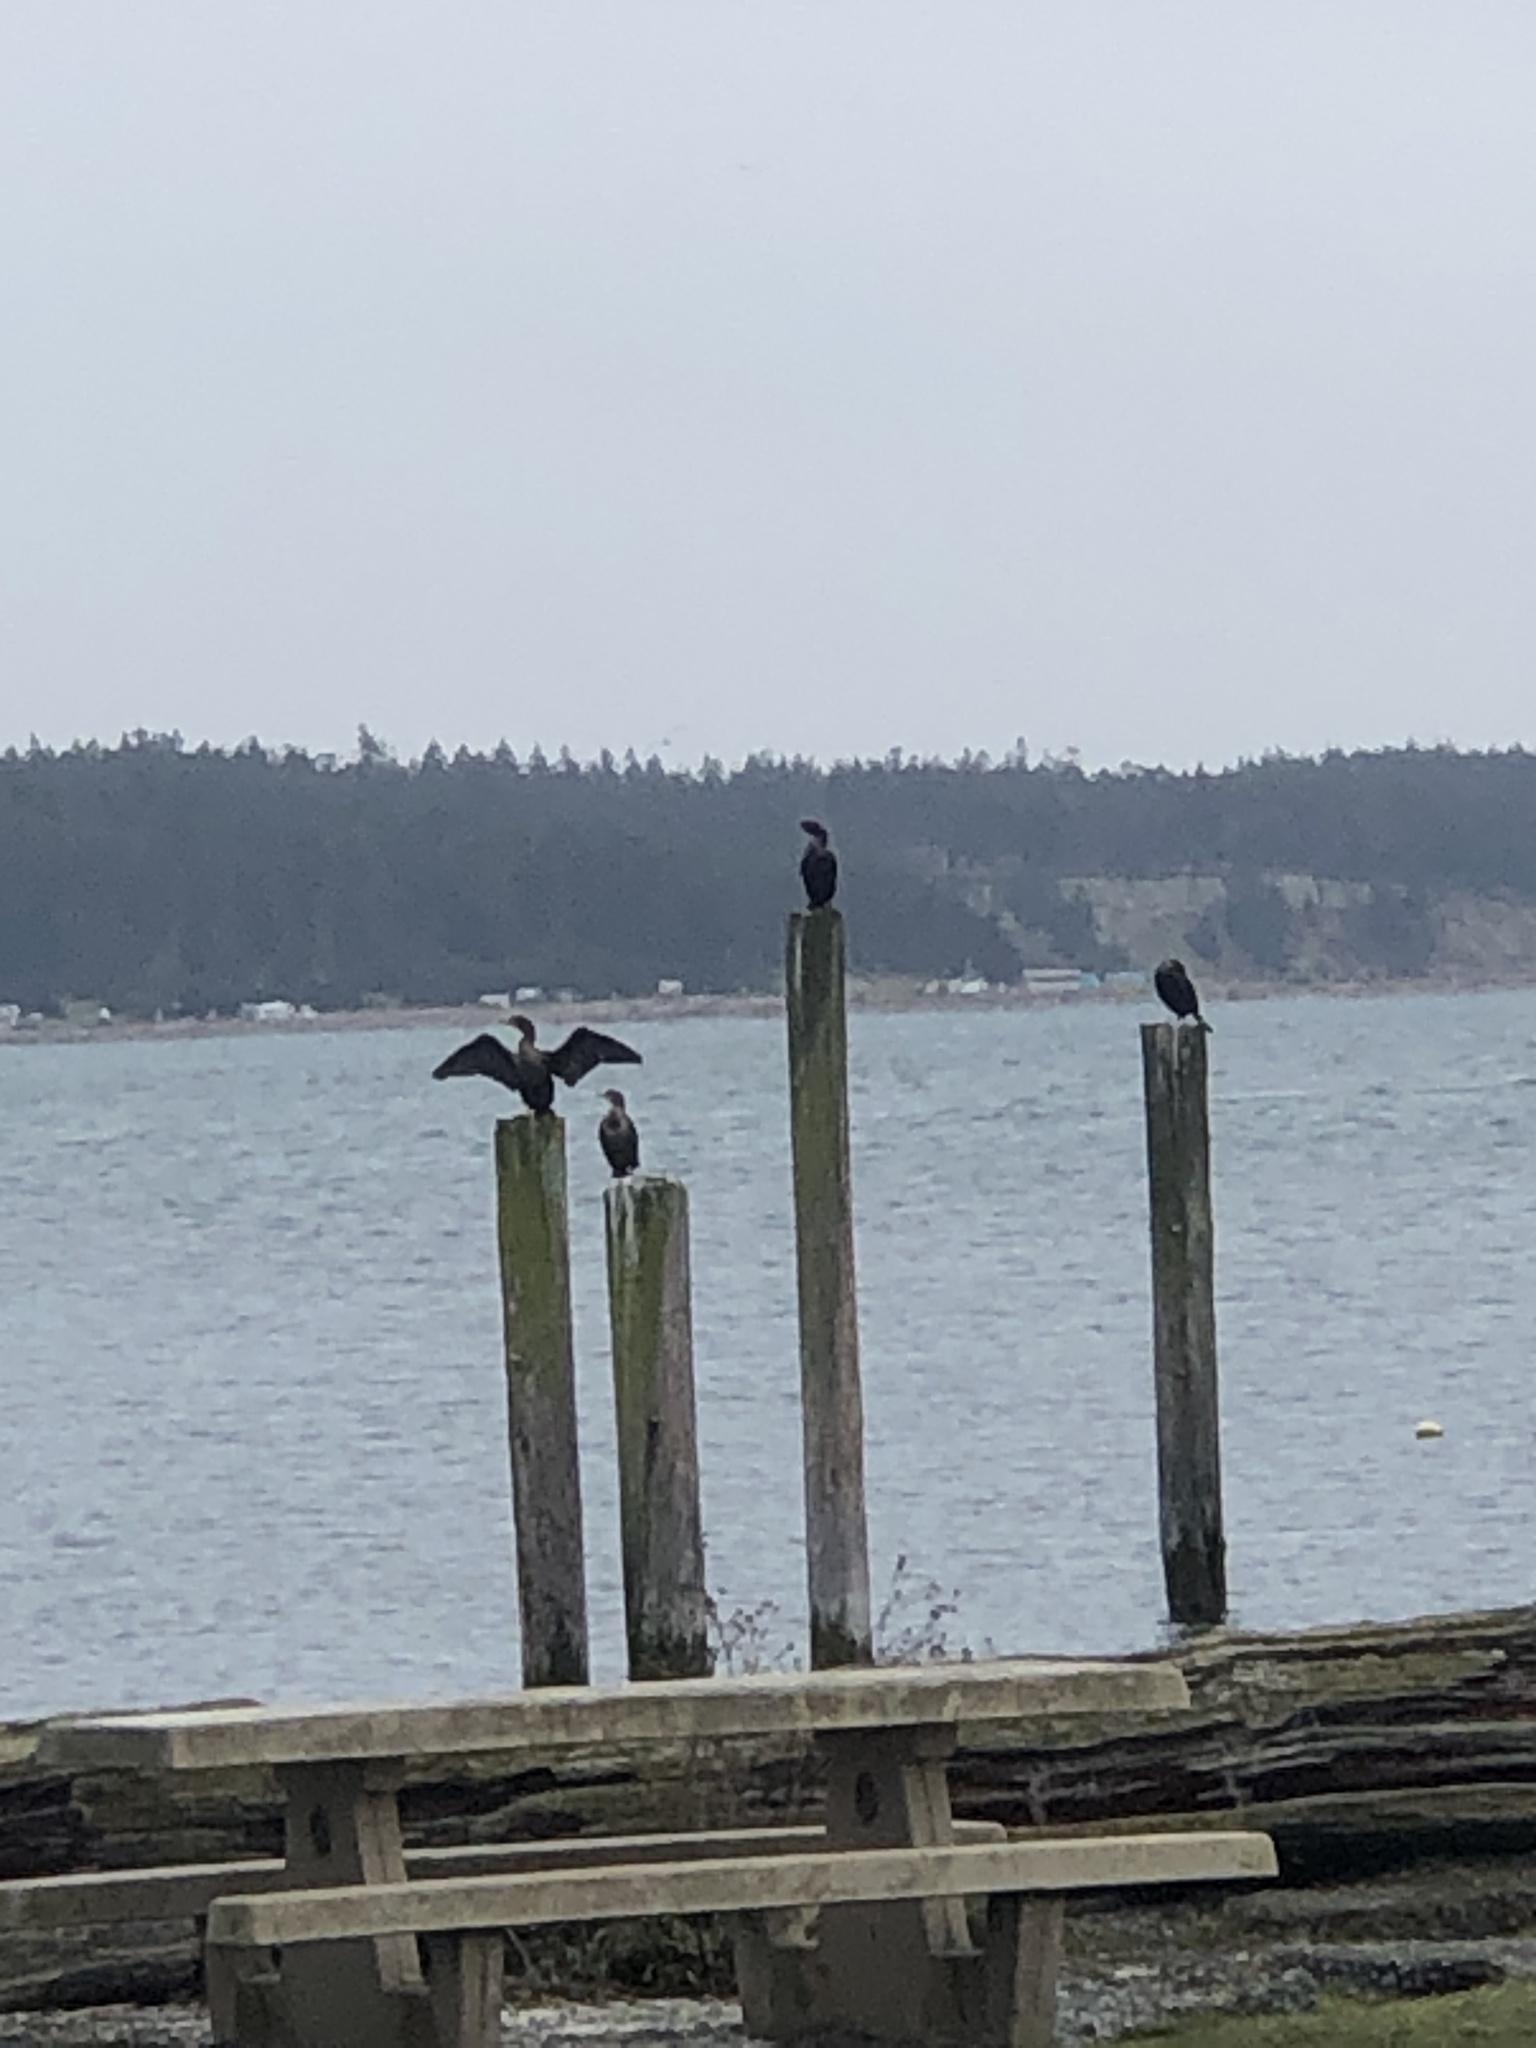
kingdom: Animalia
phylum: Chordata
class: Aves
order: Suliformes
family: Phalacrocoracidae
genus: Phalacrocorax
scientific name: Phalacrocorax auritus
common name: Double-crested cormorant
